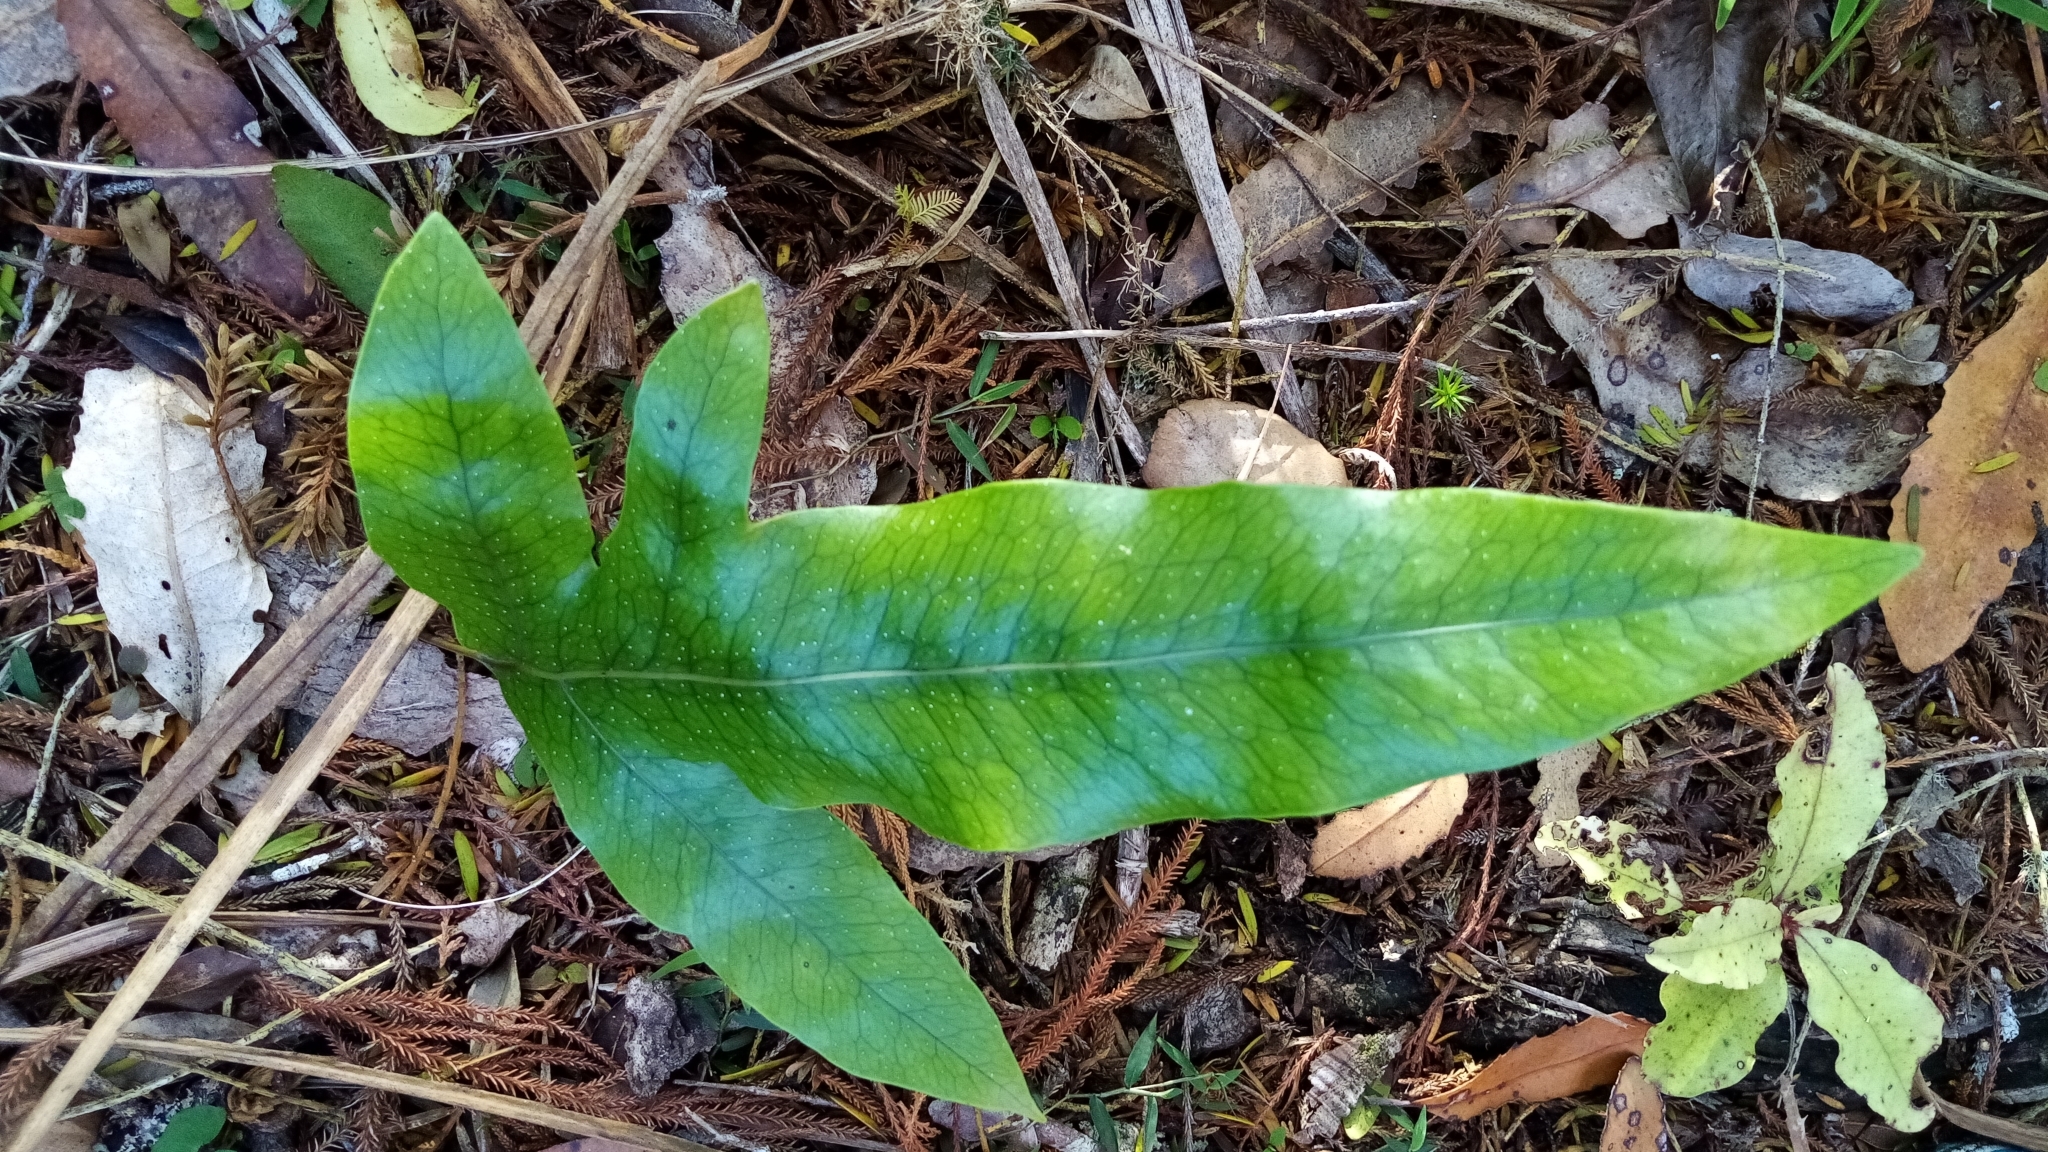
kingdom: Plantae
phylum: Tracheophyta
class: Polypodiopsida
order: Polypodiales
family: Polypodiaceae
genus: Lecanopteris
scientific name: Lecanopteris pustulata
